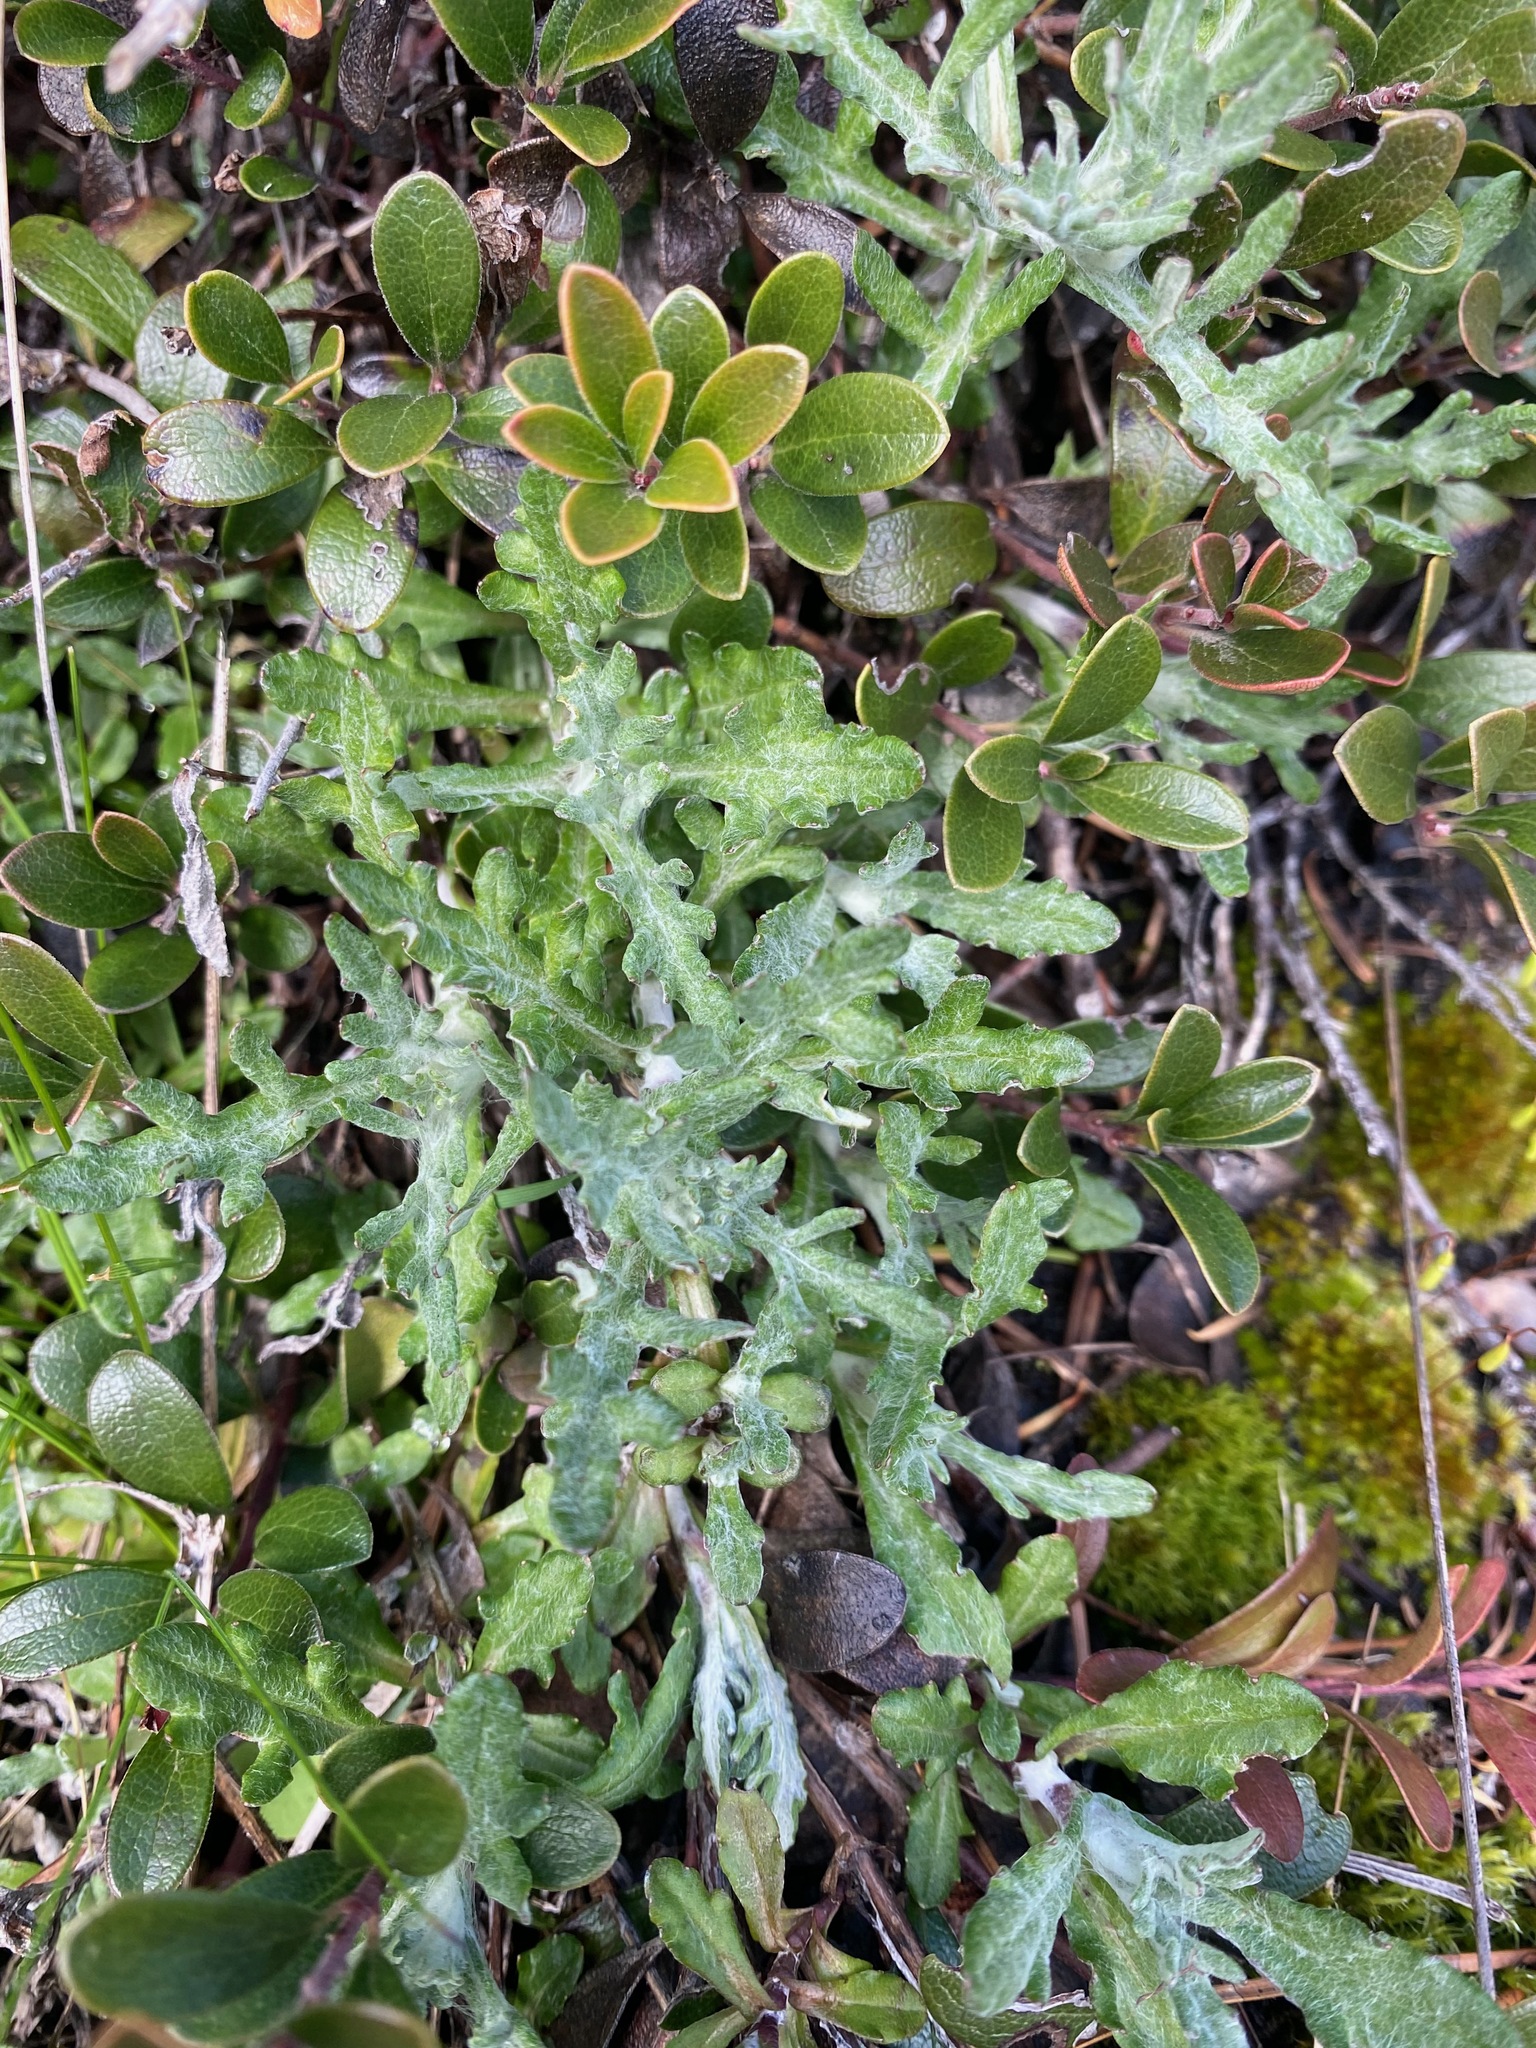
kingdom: Plantae
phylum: Tracheophyta
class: Magnoliopsida
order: Asterales
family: Asteraceae
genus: Eriophyllum
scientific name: Eriophyllum lanatum
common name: Common woolly-sunflower
